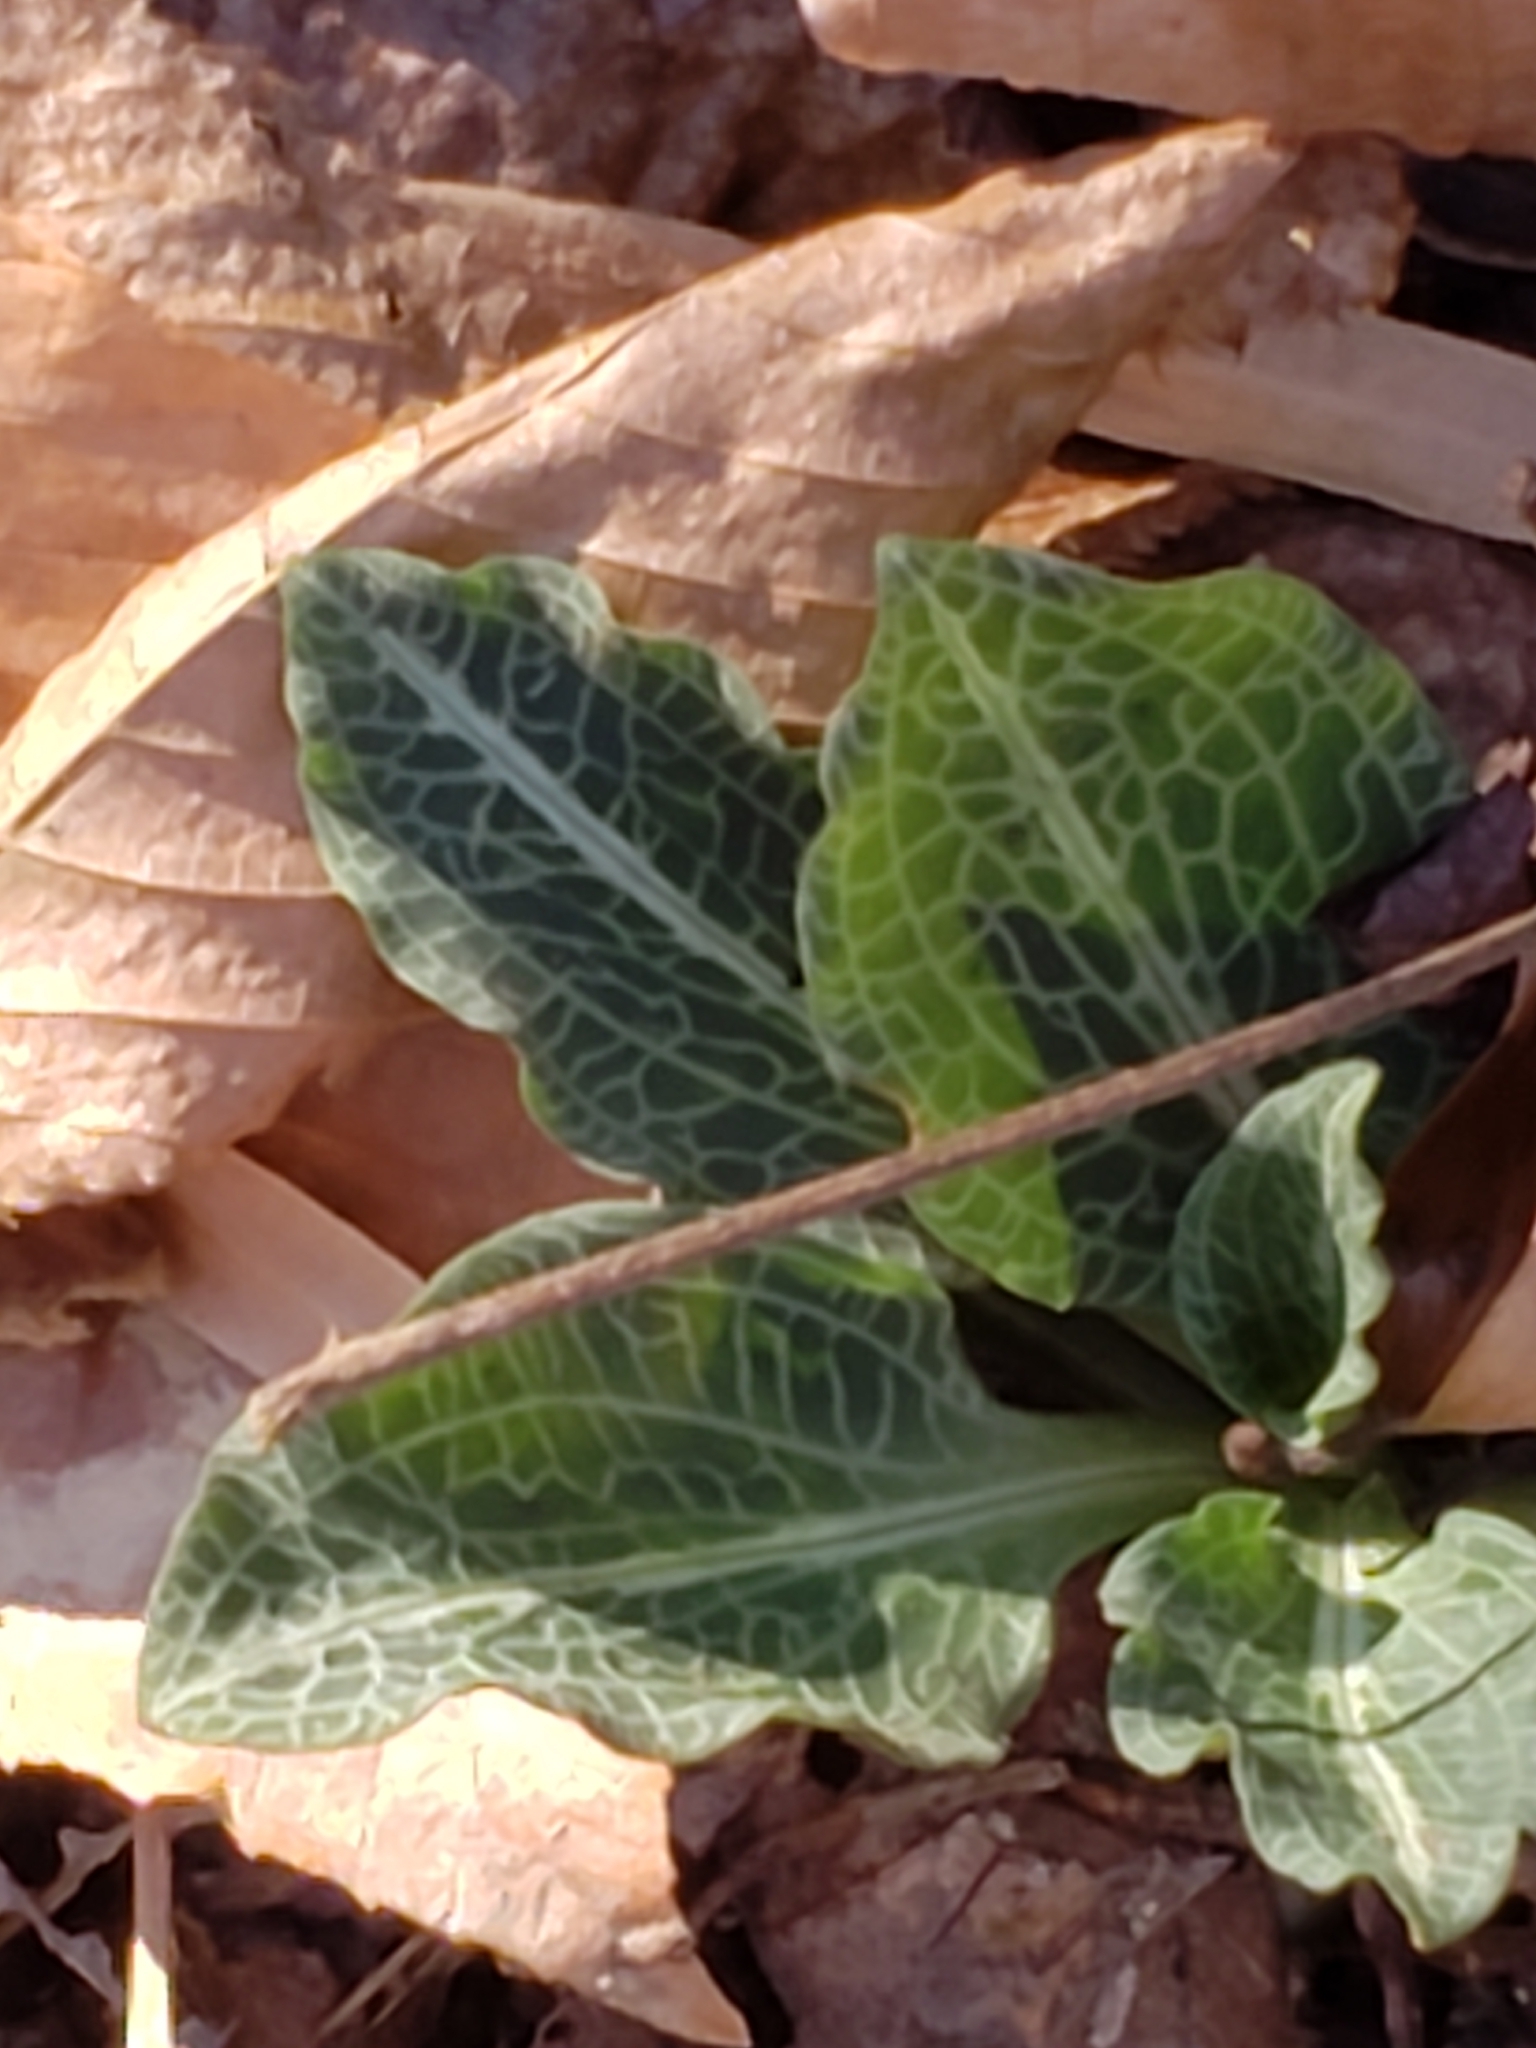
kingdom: Plantae
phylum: Tracheophyta
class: Liliopsida
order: Asparagales
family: Orchidaceae
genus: Goodyera
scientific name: Goodyera pubescens
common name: Downy rattlesnake-plantain
